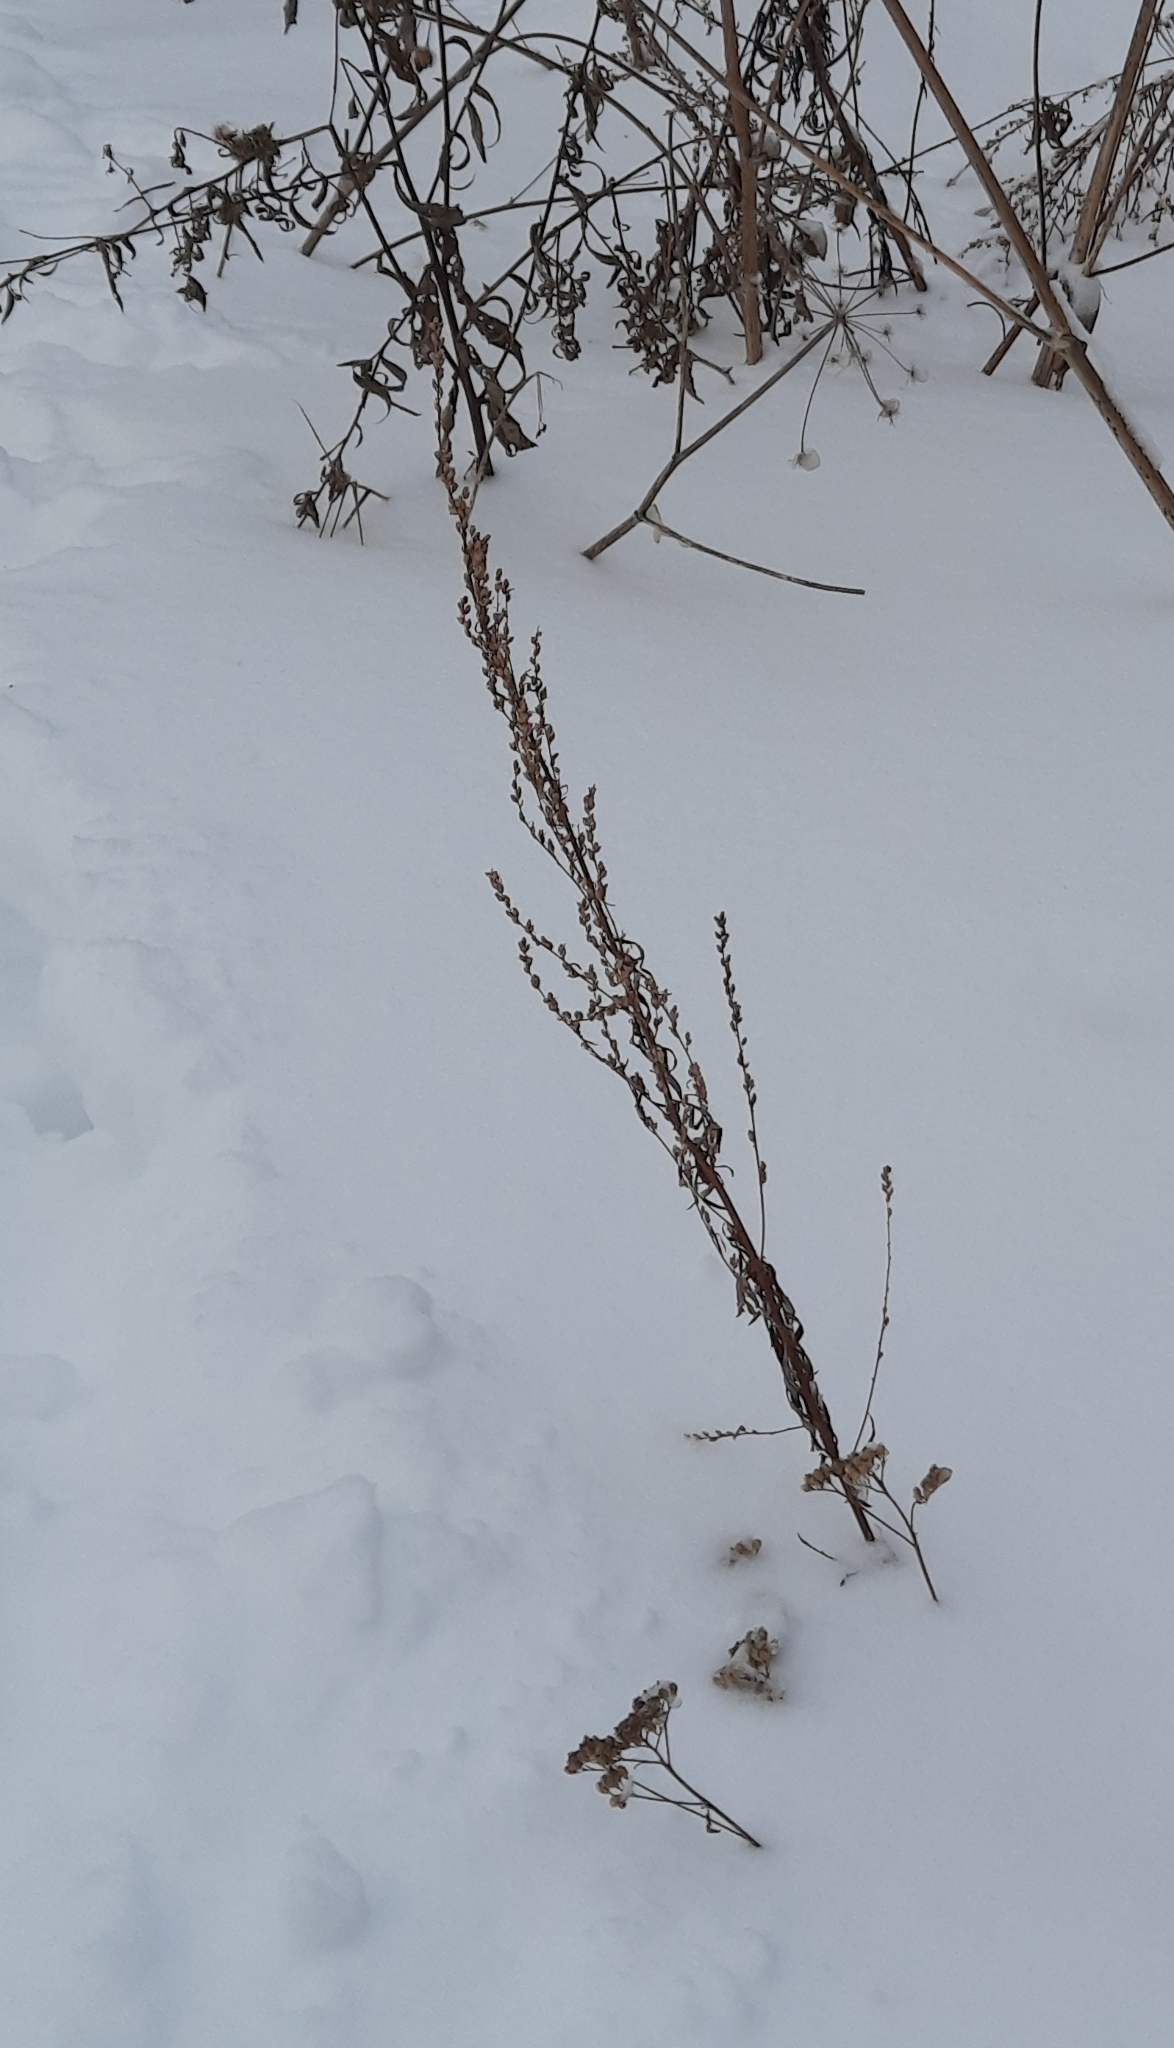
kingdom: Plantae
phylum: Tracheophyta
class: Magnoliopsida
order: Asterales
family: Asteraceae
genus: Artemisia
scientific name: Artemisia vulgaris
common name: Mugwort
